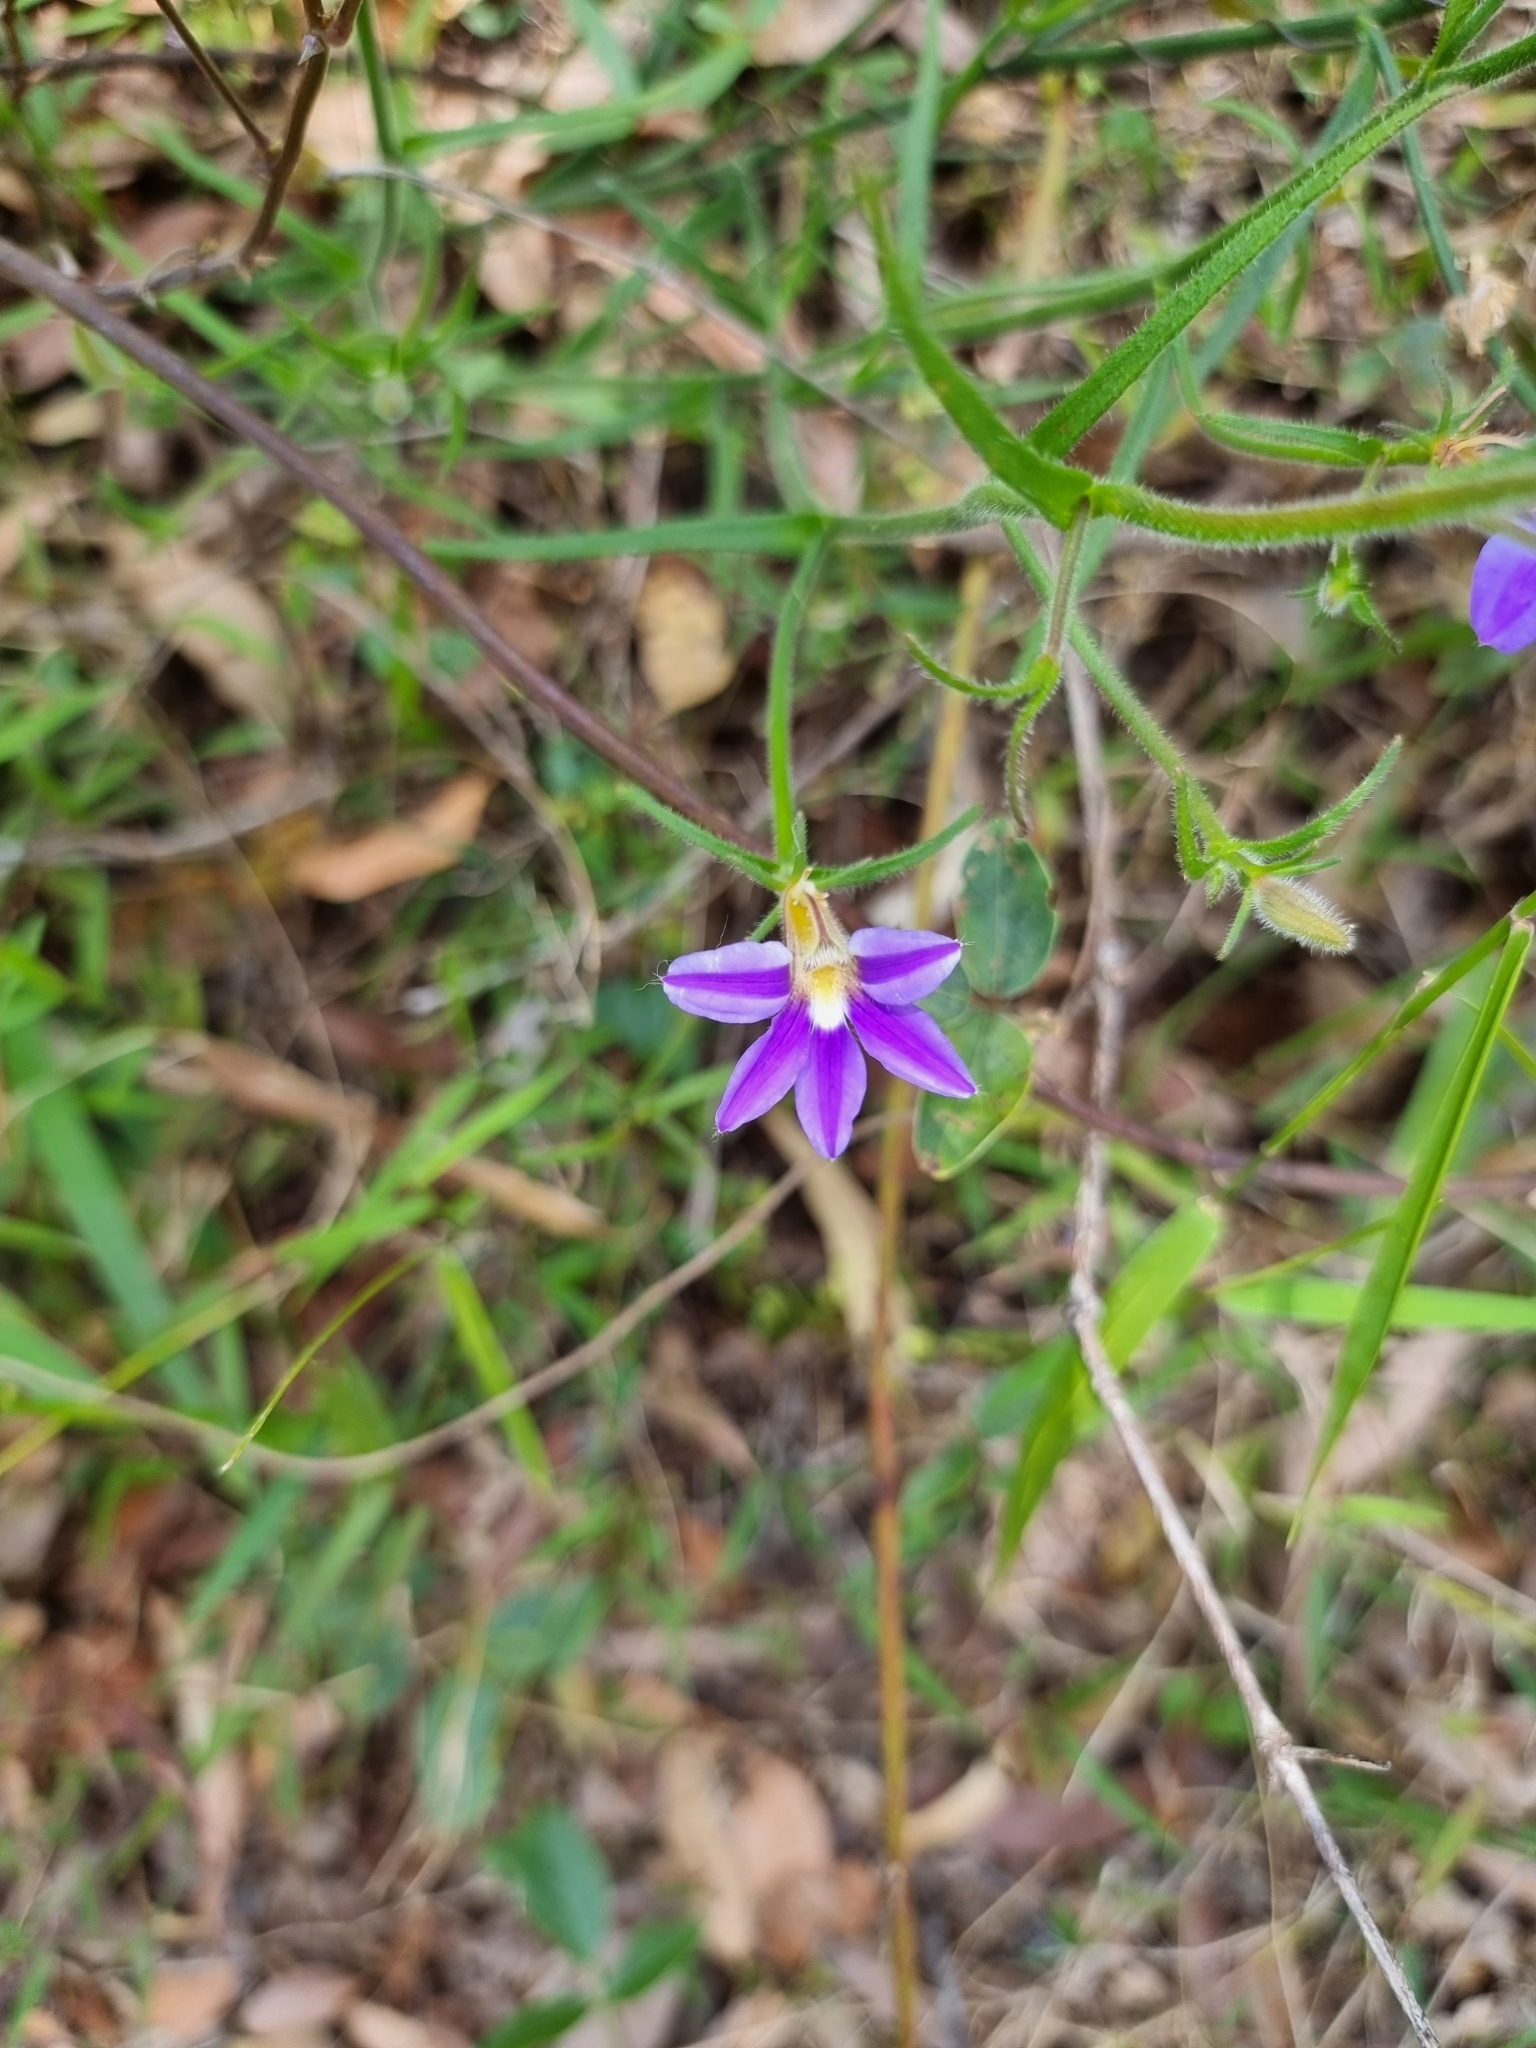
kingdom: Plantae
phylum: Tracheophyta
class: Magnoliopsida
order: Asterales
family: Goodeniaceae
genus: Scaevola
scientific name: Scaevola ramosissima
